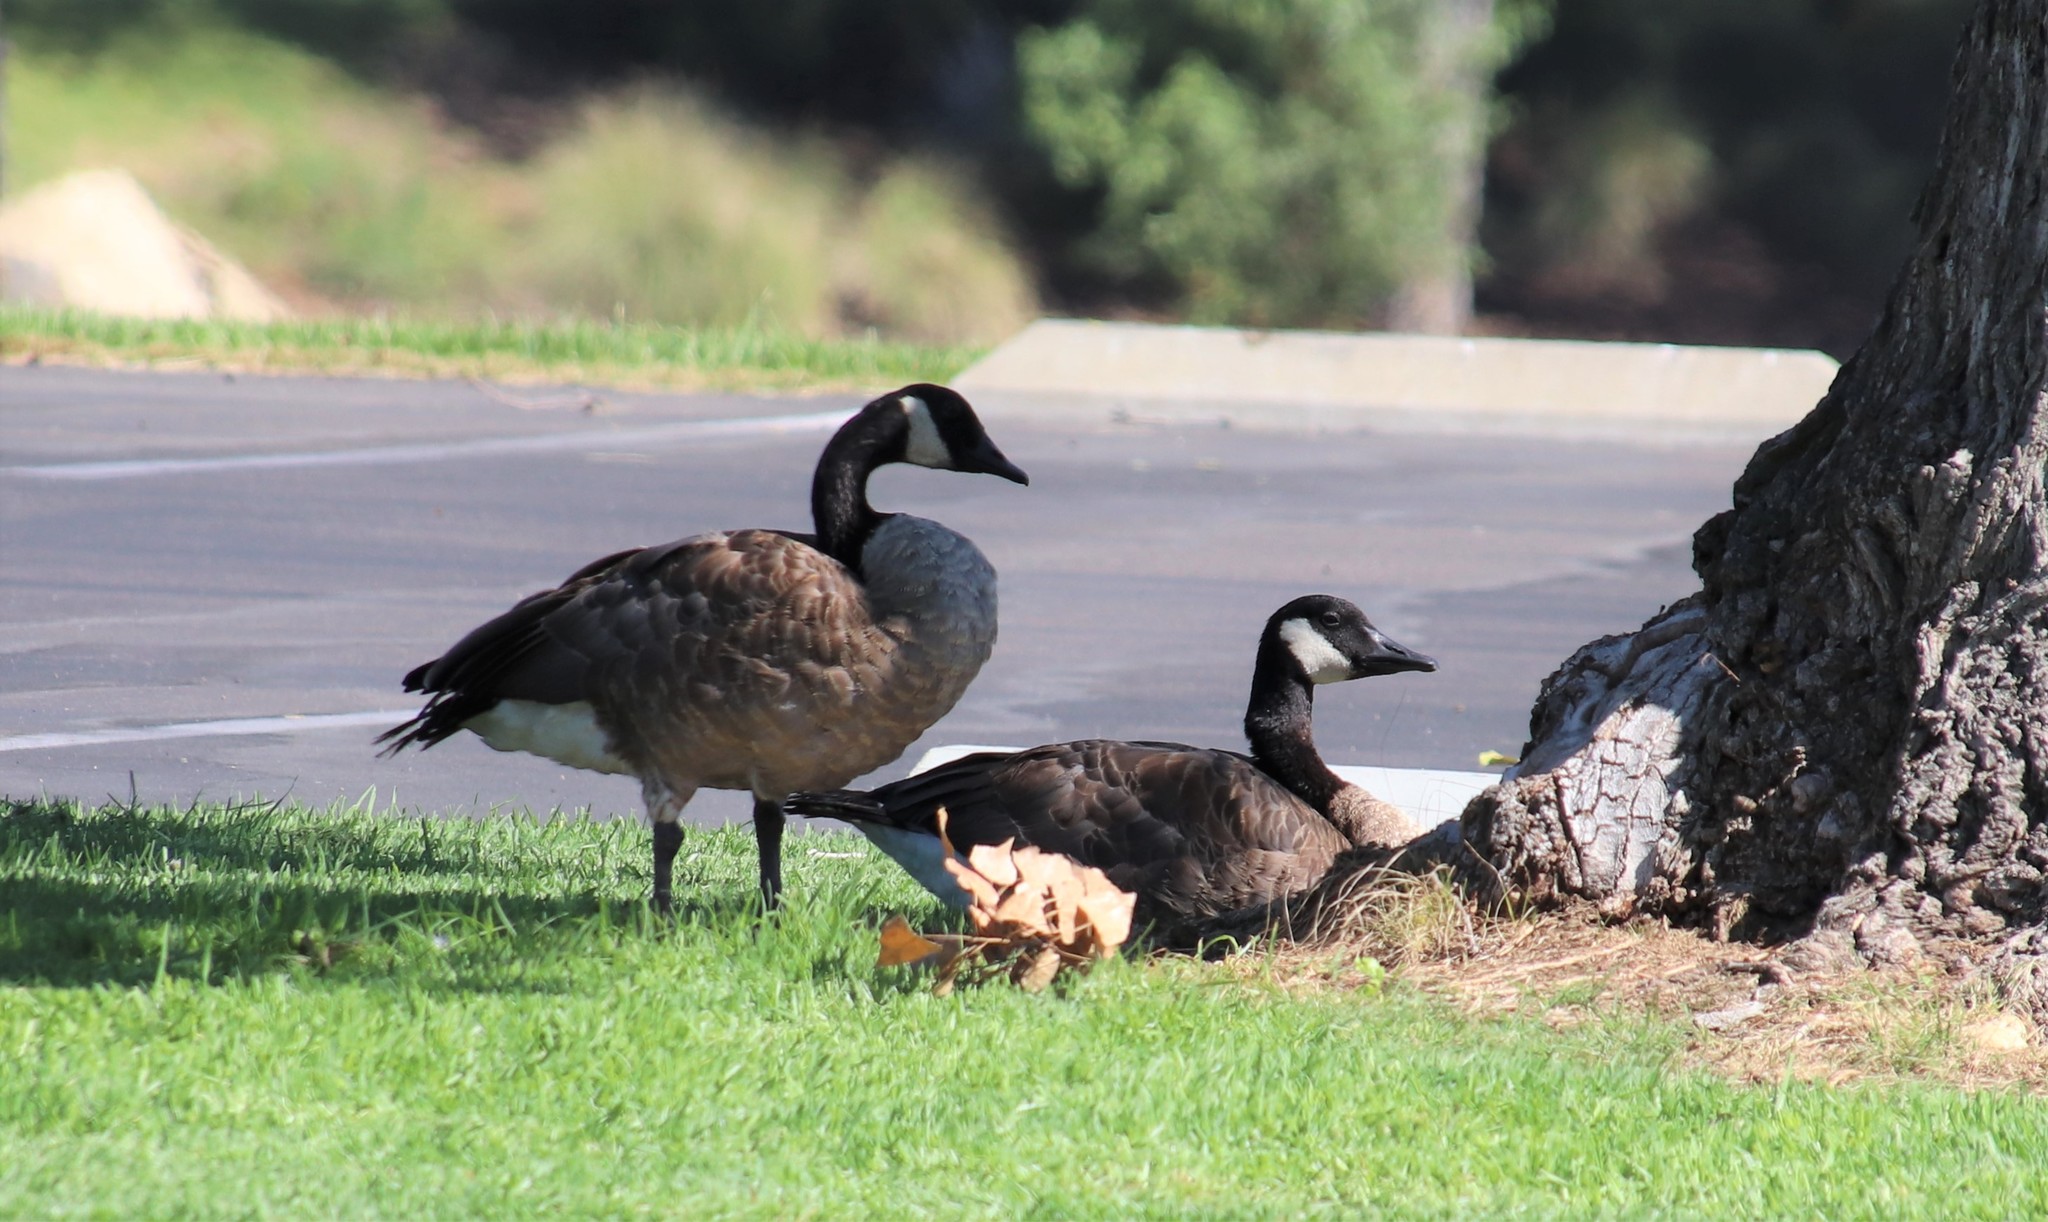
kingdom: Animalia
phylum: Chordata
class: Aves
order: Anseriformes
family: Anatidae
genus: Branta
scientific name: Branta canadensis
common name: Canada goose
